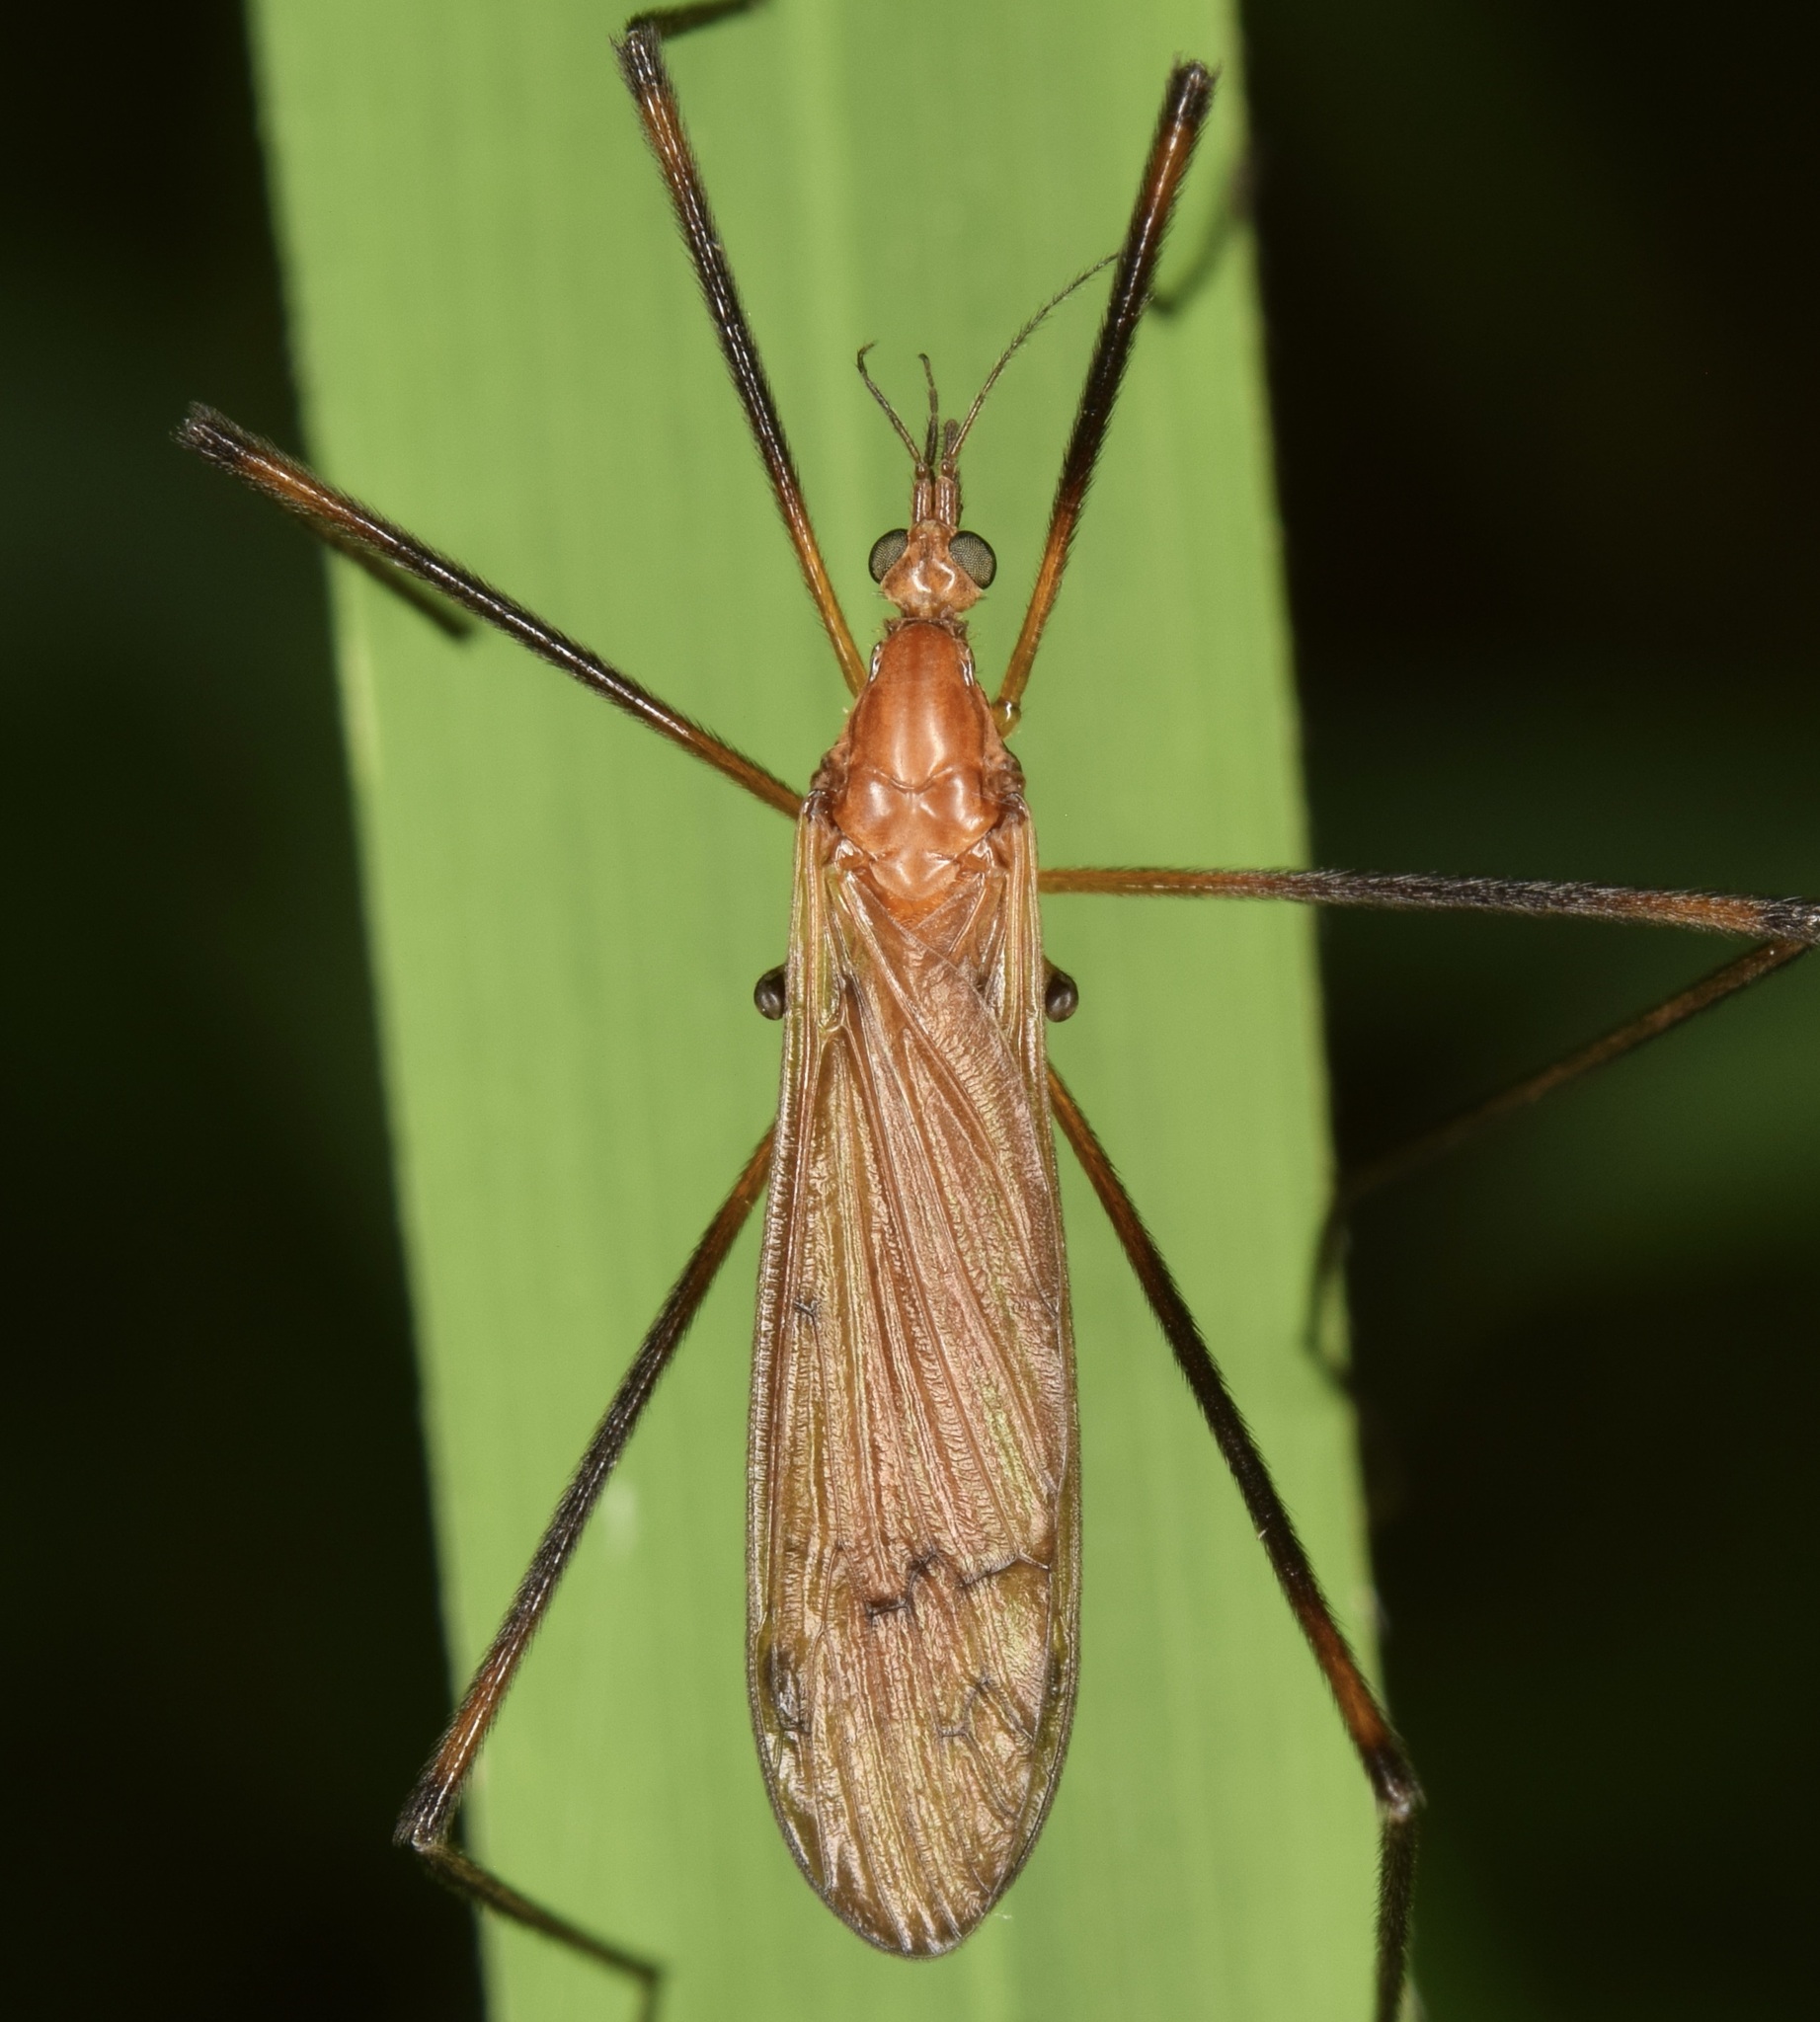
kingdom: Animalia
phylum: Arthropoda
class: Insecta
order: Diptera
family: Limoniidae
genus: Hexatoma
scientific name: Hexatoma aurata
